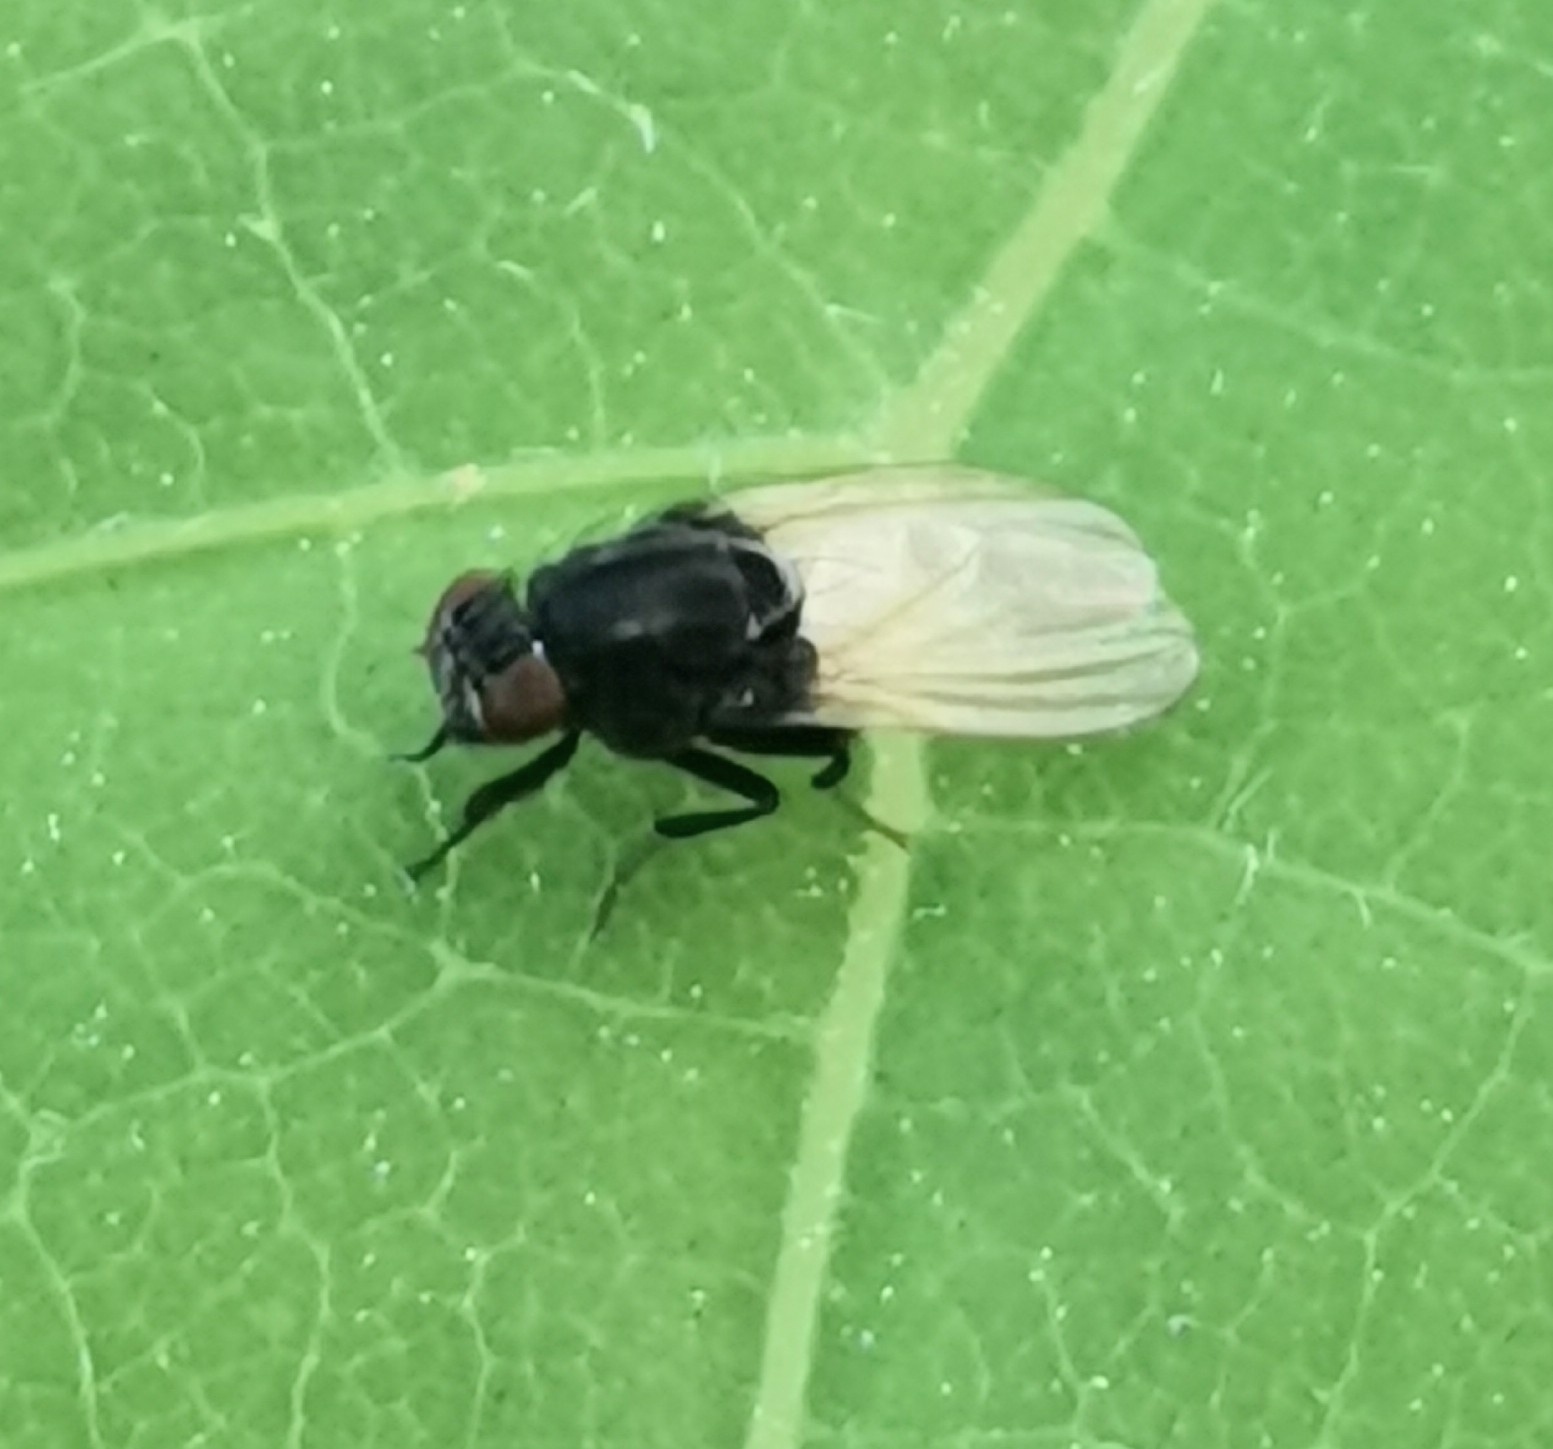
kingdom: Animalia
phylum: Arthropoda
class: Insecta
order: Diptera
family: Lauxaniidae
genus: Minettia
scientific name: Minettia longipennis
